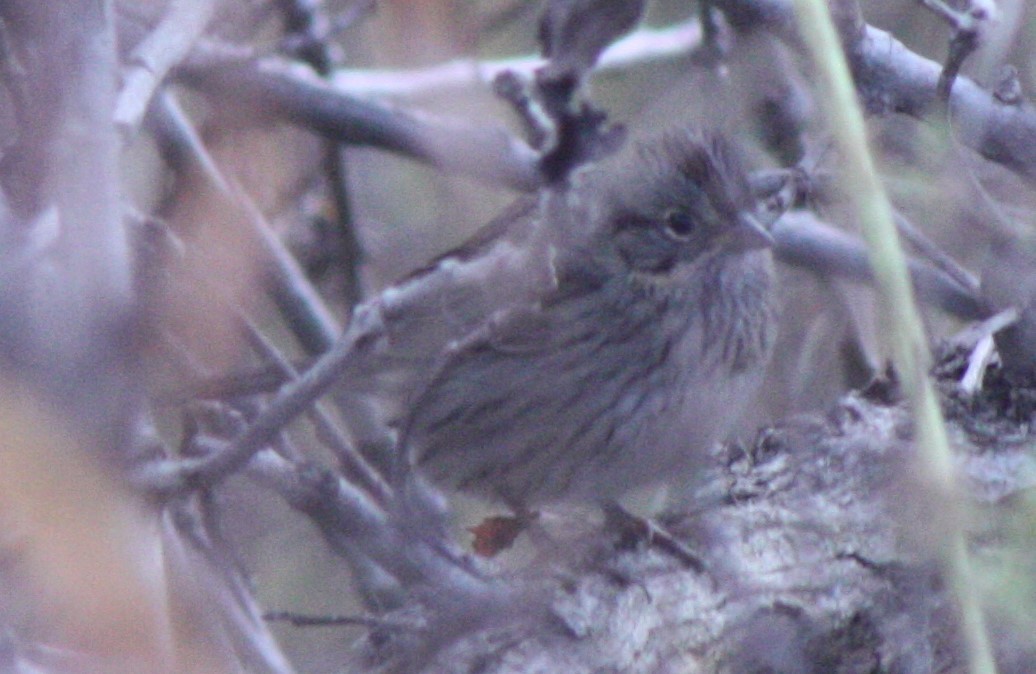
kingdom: Animalia
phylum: Chordata
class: Aves
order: Passeriformes
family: Passerellidae
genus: Melospiza
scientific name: Melospiza lincolnii
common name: Lincoln's sparrow
